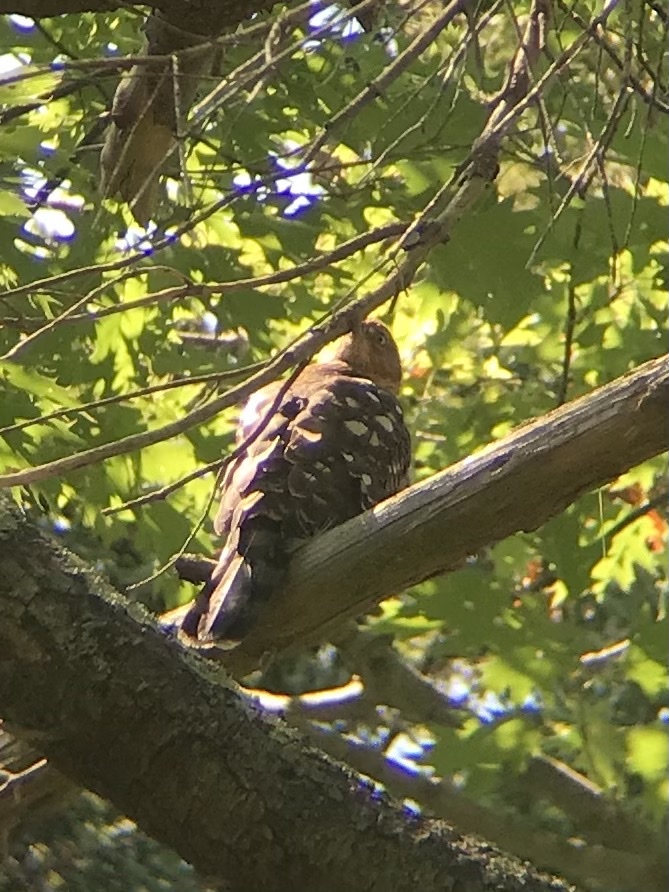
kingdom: Animalia
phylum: Chordata
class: Aves
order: Accipitriformes
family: Accipitridae
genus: Accipiter
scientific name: Accipiter cooperii
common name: Cooper's hawk
